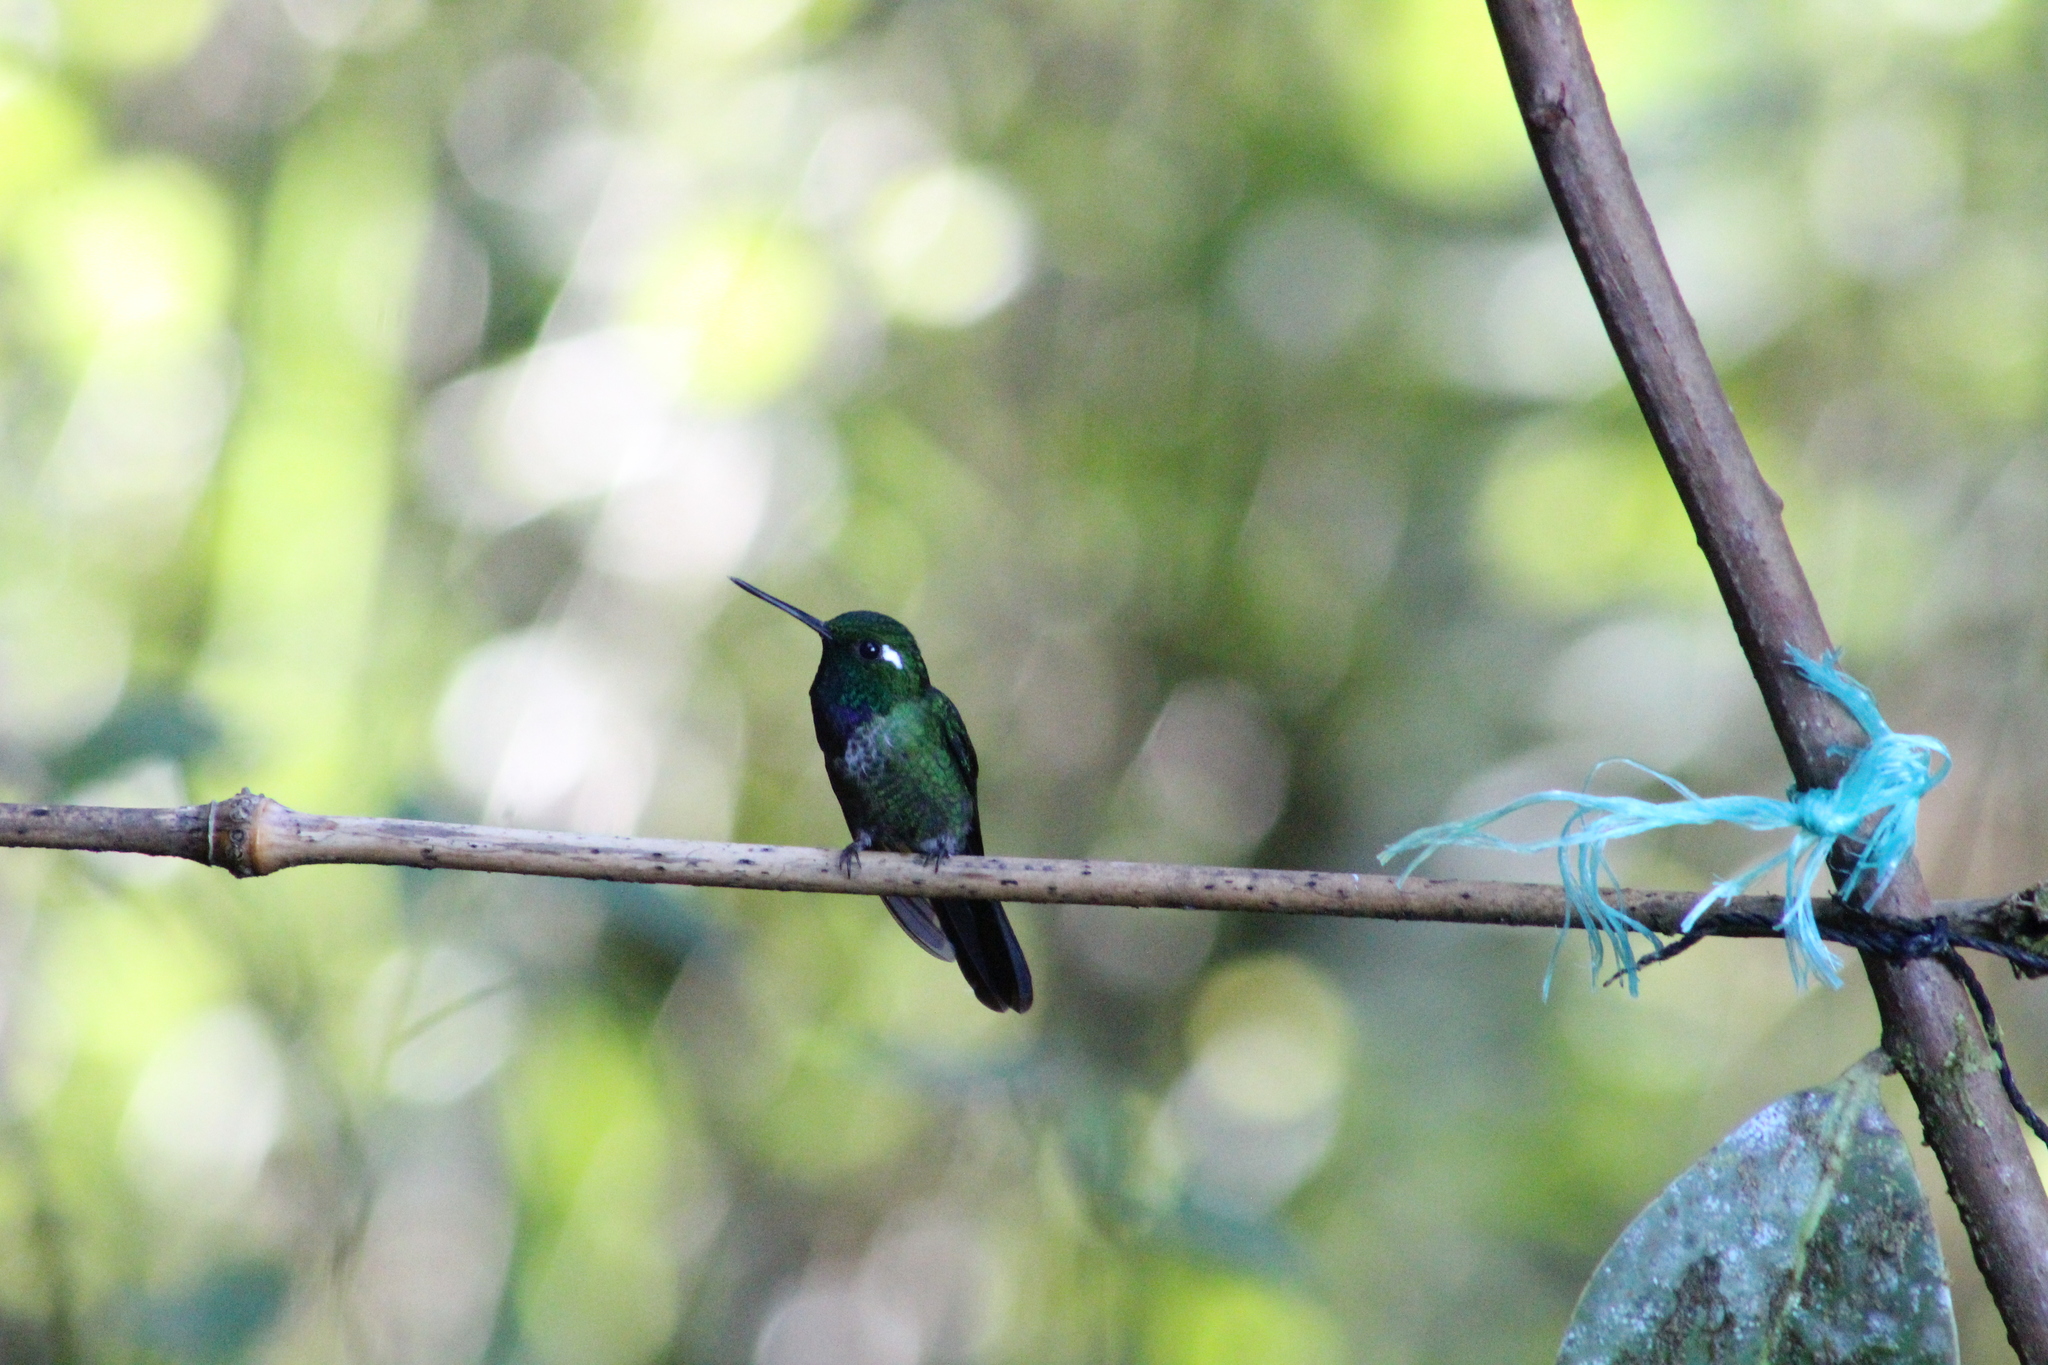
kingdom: Animalia
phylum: Chordata
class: Aves
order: Apodiformes
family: Trochilidae
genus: Urosticte
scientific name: Urosticte benjamini
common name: Purple-bibbed whitetip
